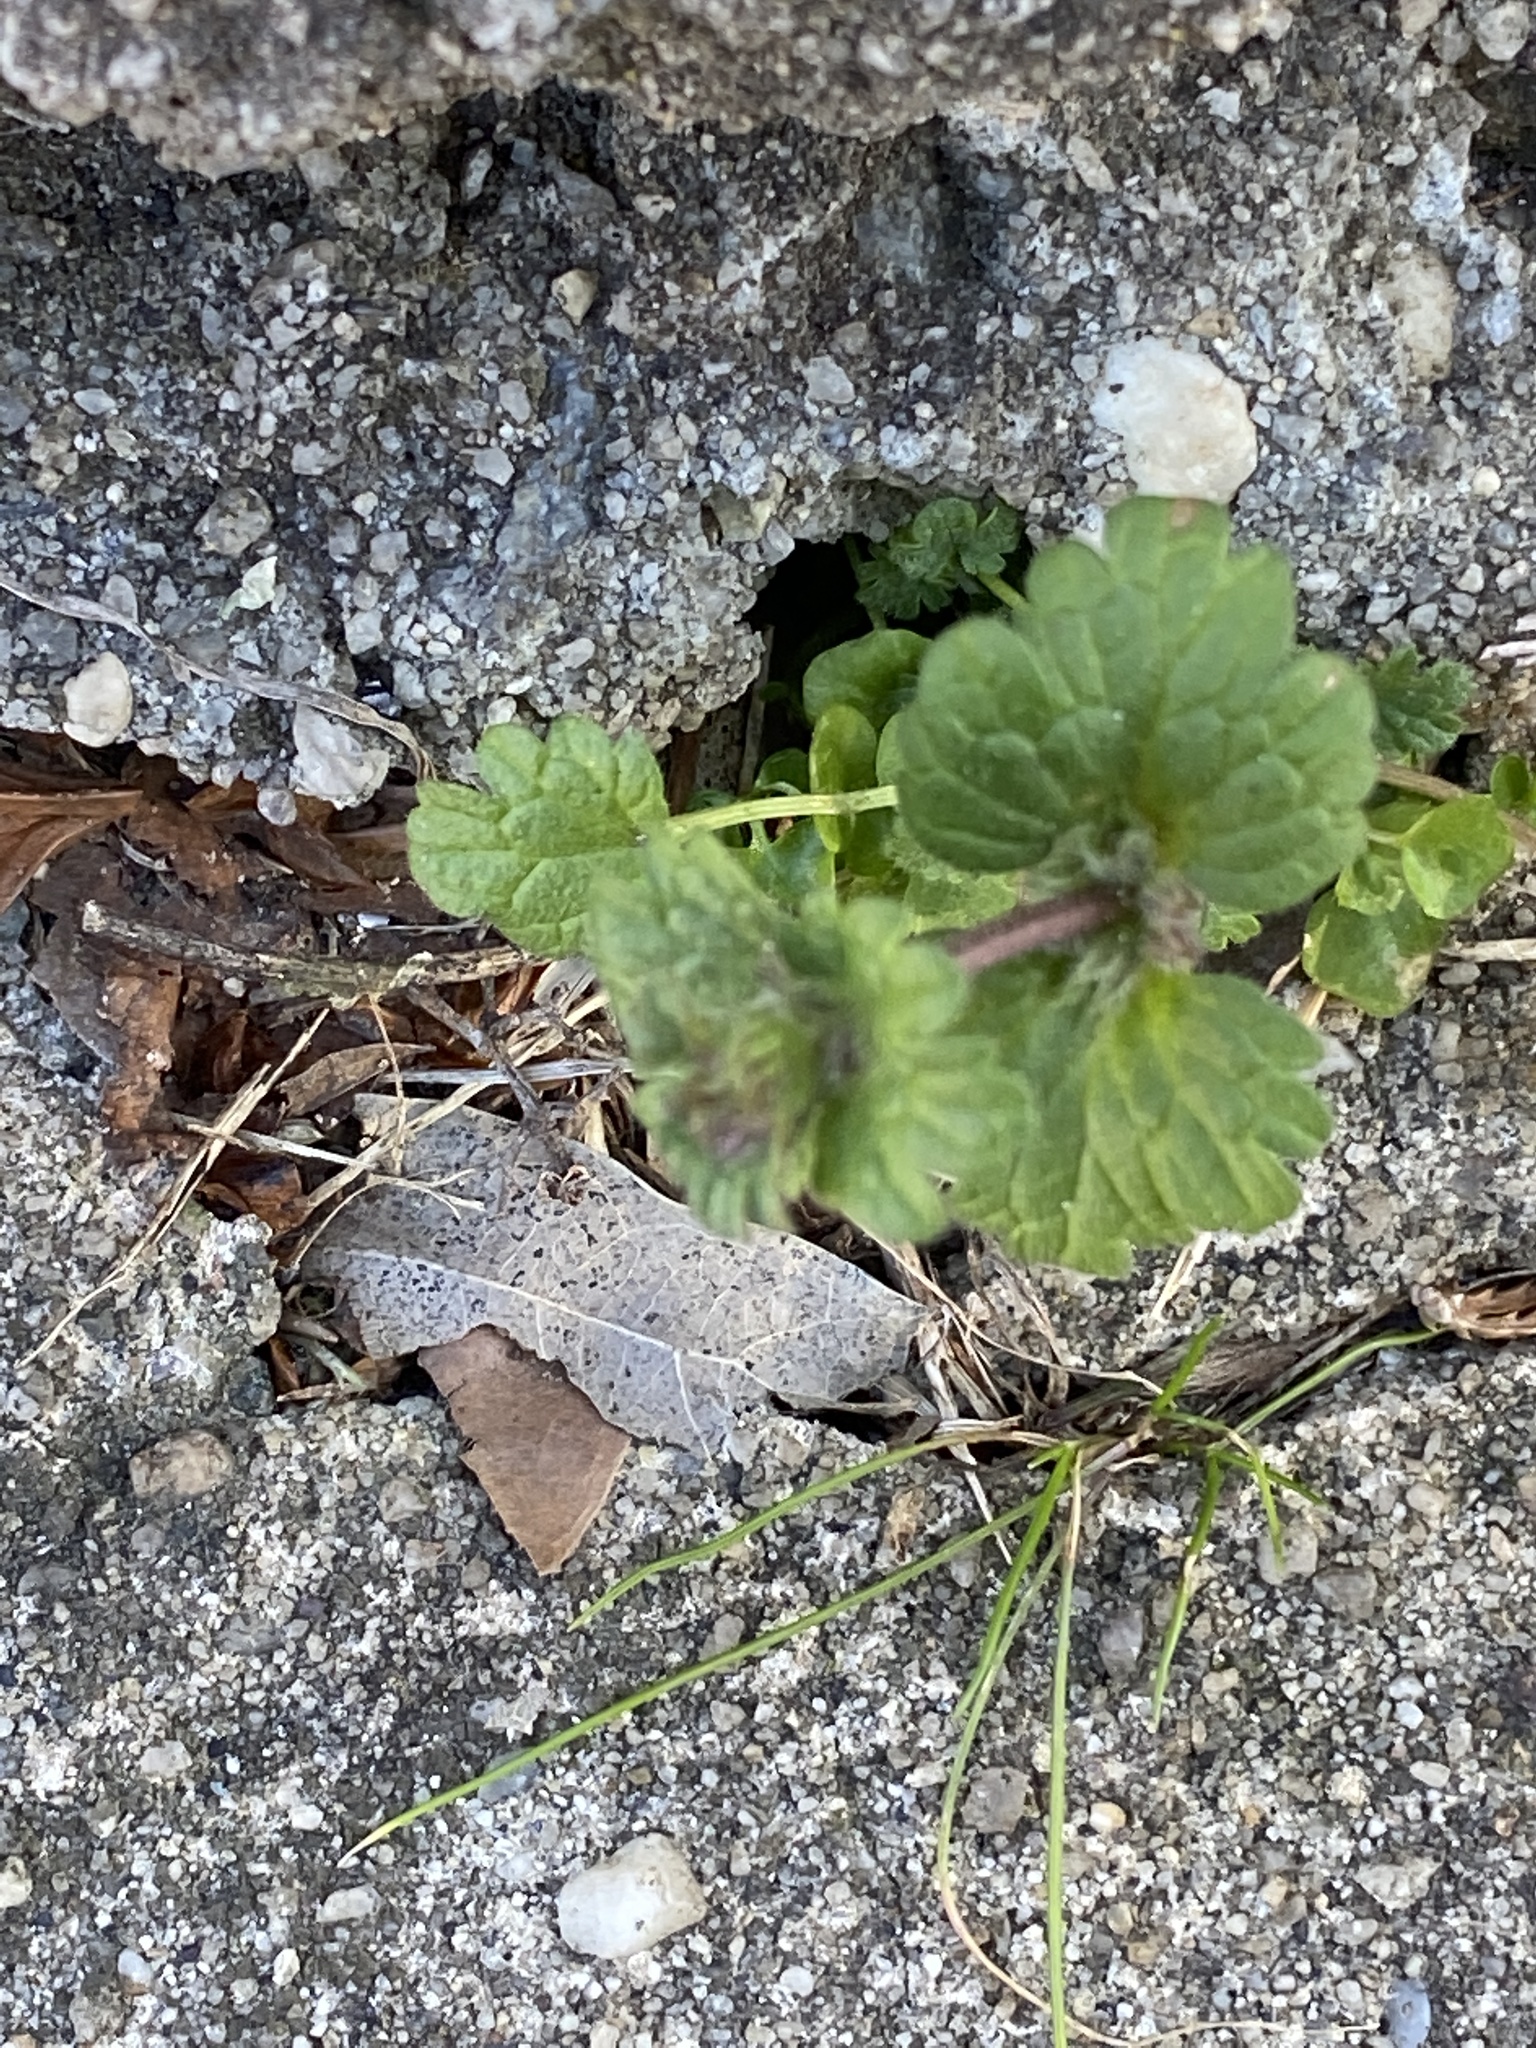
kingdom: Plantae
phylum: Tracheophyta
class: Magnoliopsida
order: Lamiales
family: Lamiaceae
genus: Lamium
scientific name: Lamium amplexicaule
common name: Henbit dead-nettle
